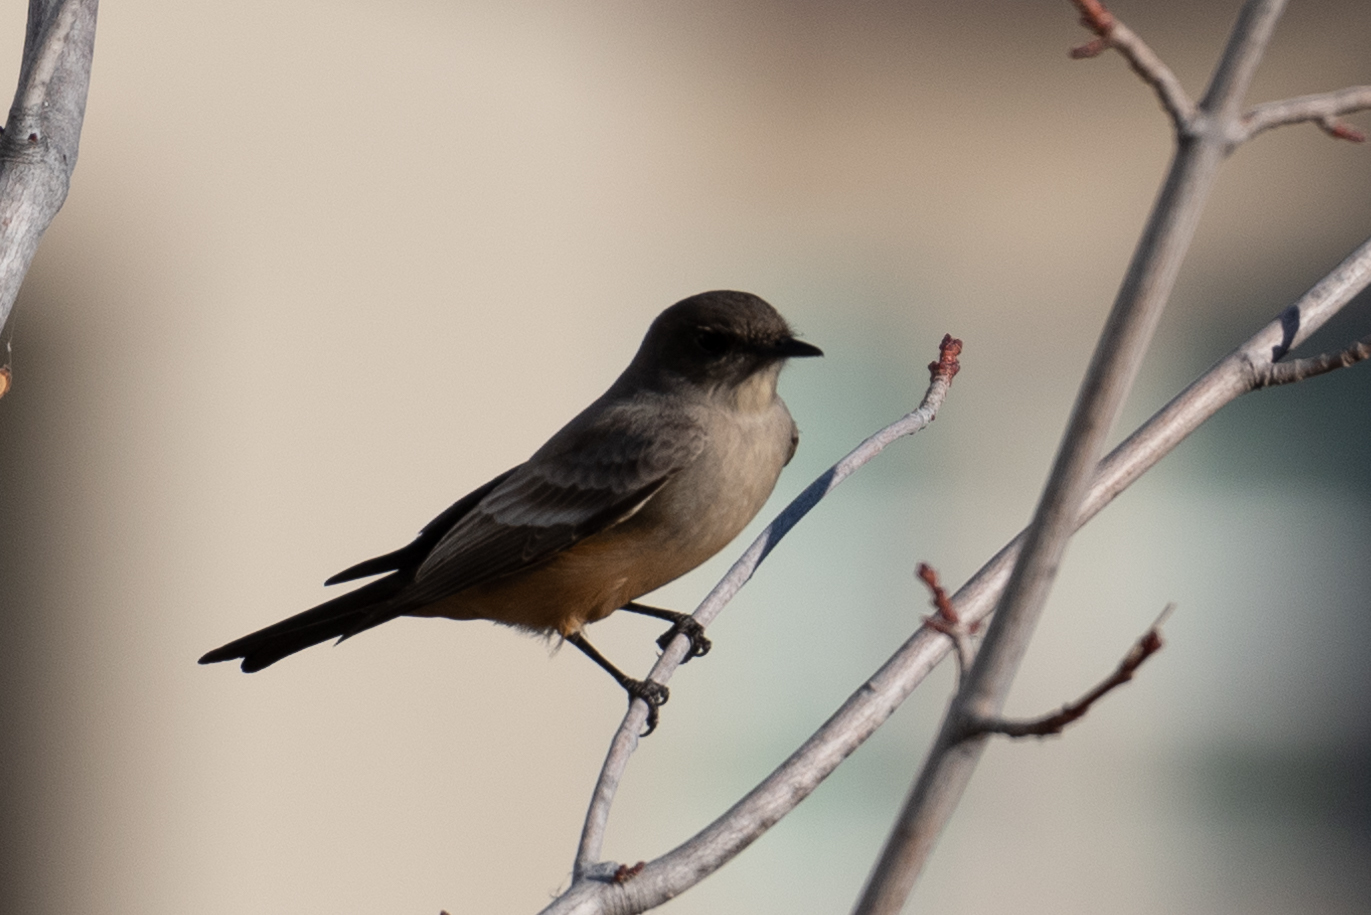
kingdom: Animalia
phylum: Chordata
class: Aves
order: Passeriformes
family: Tyrannidae
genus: Sayornis
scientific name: Sayornis saya
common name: Say's phoebe
